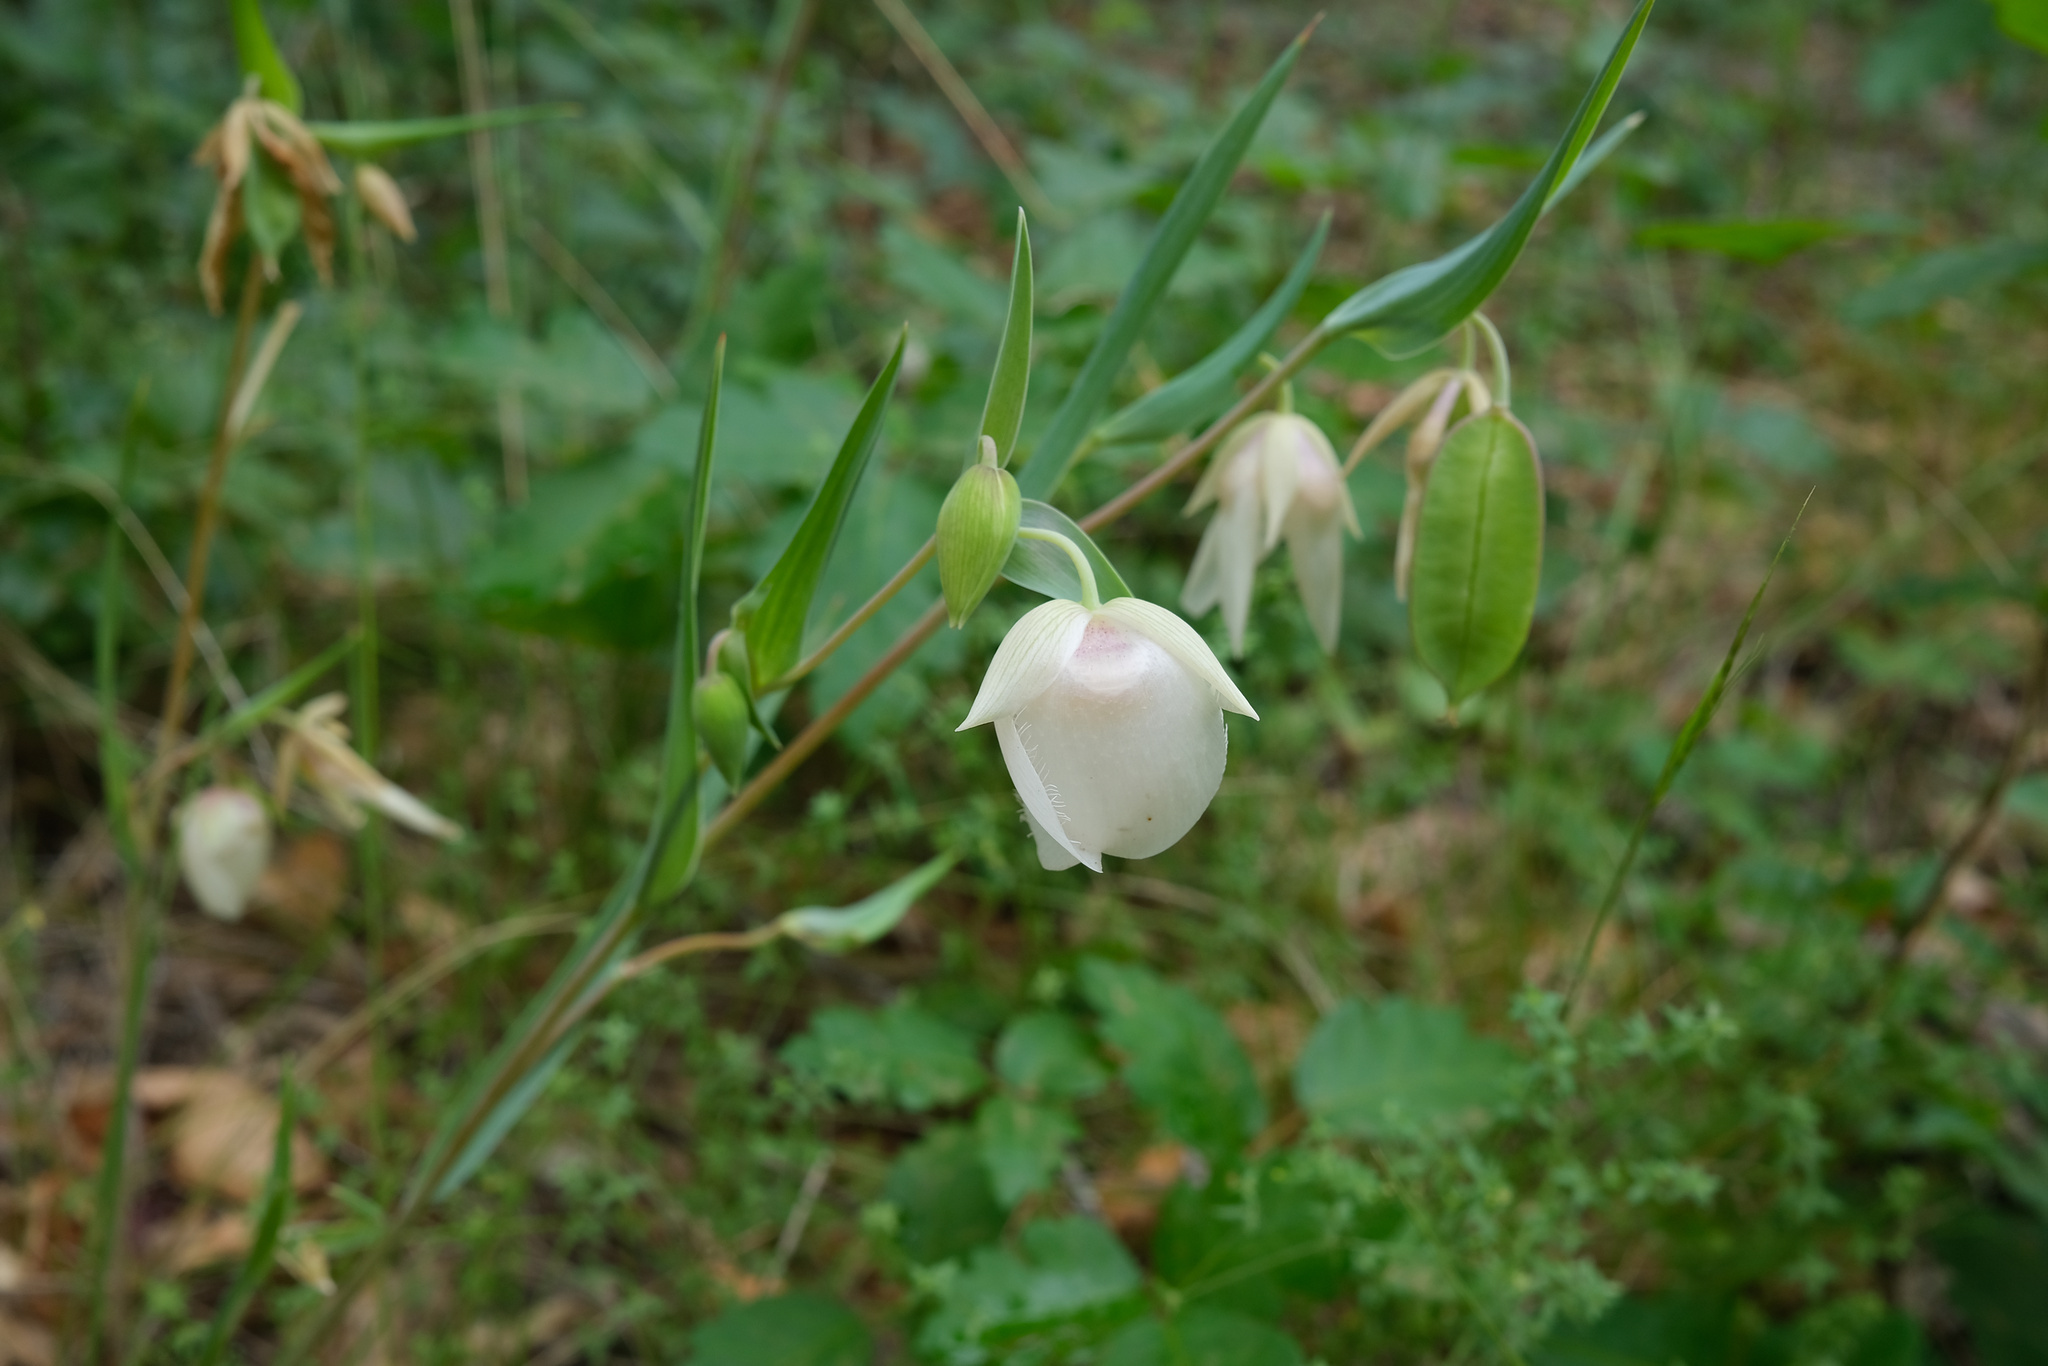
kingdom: Plantae
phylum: Tracheophyta
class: Liliopsida
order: Liliales
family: Liliaceae
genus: Calochortus
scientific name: Calochortus albus
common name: Fairy-lantern
